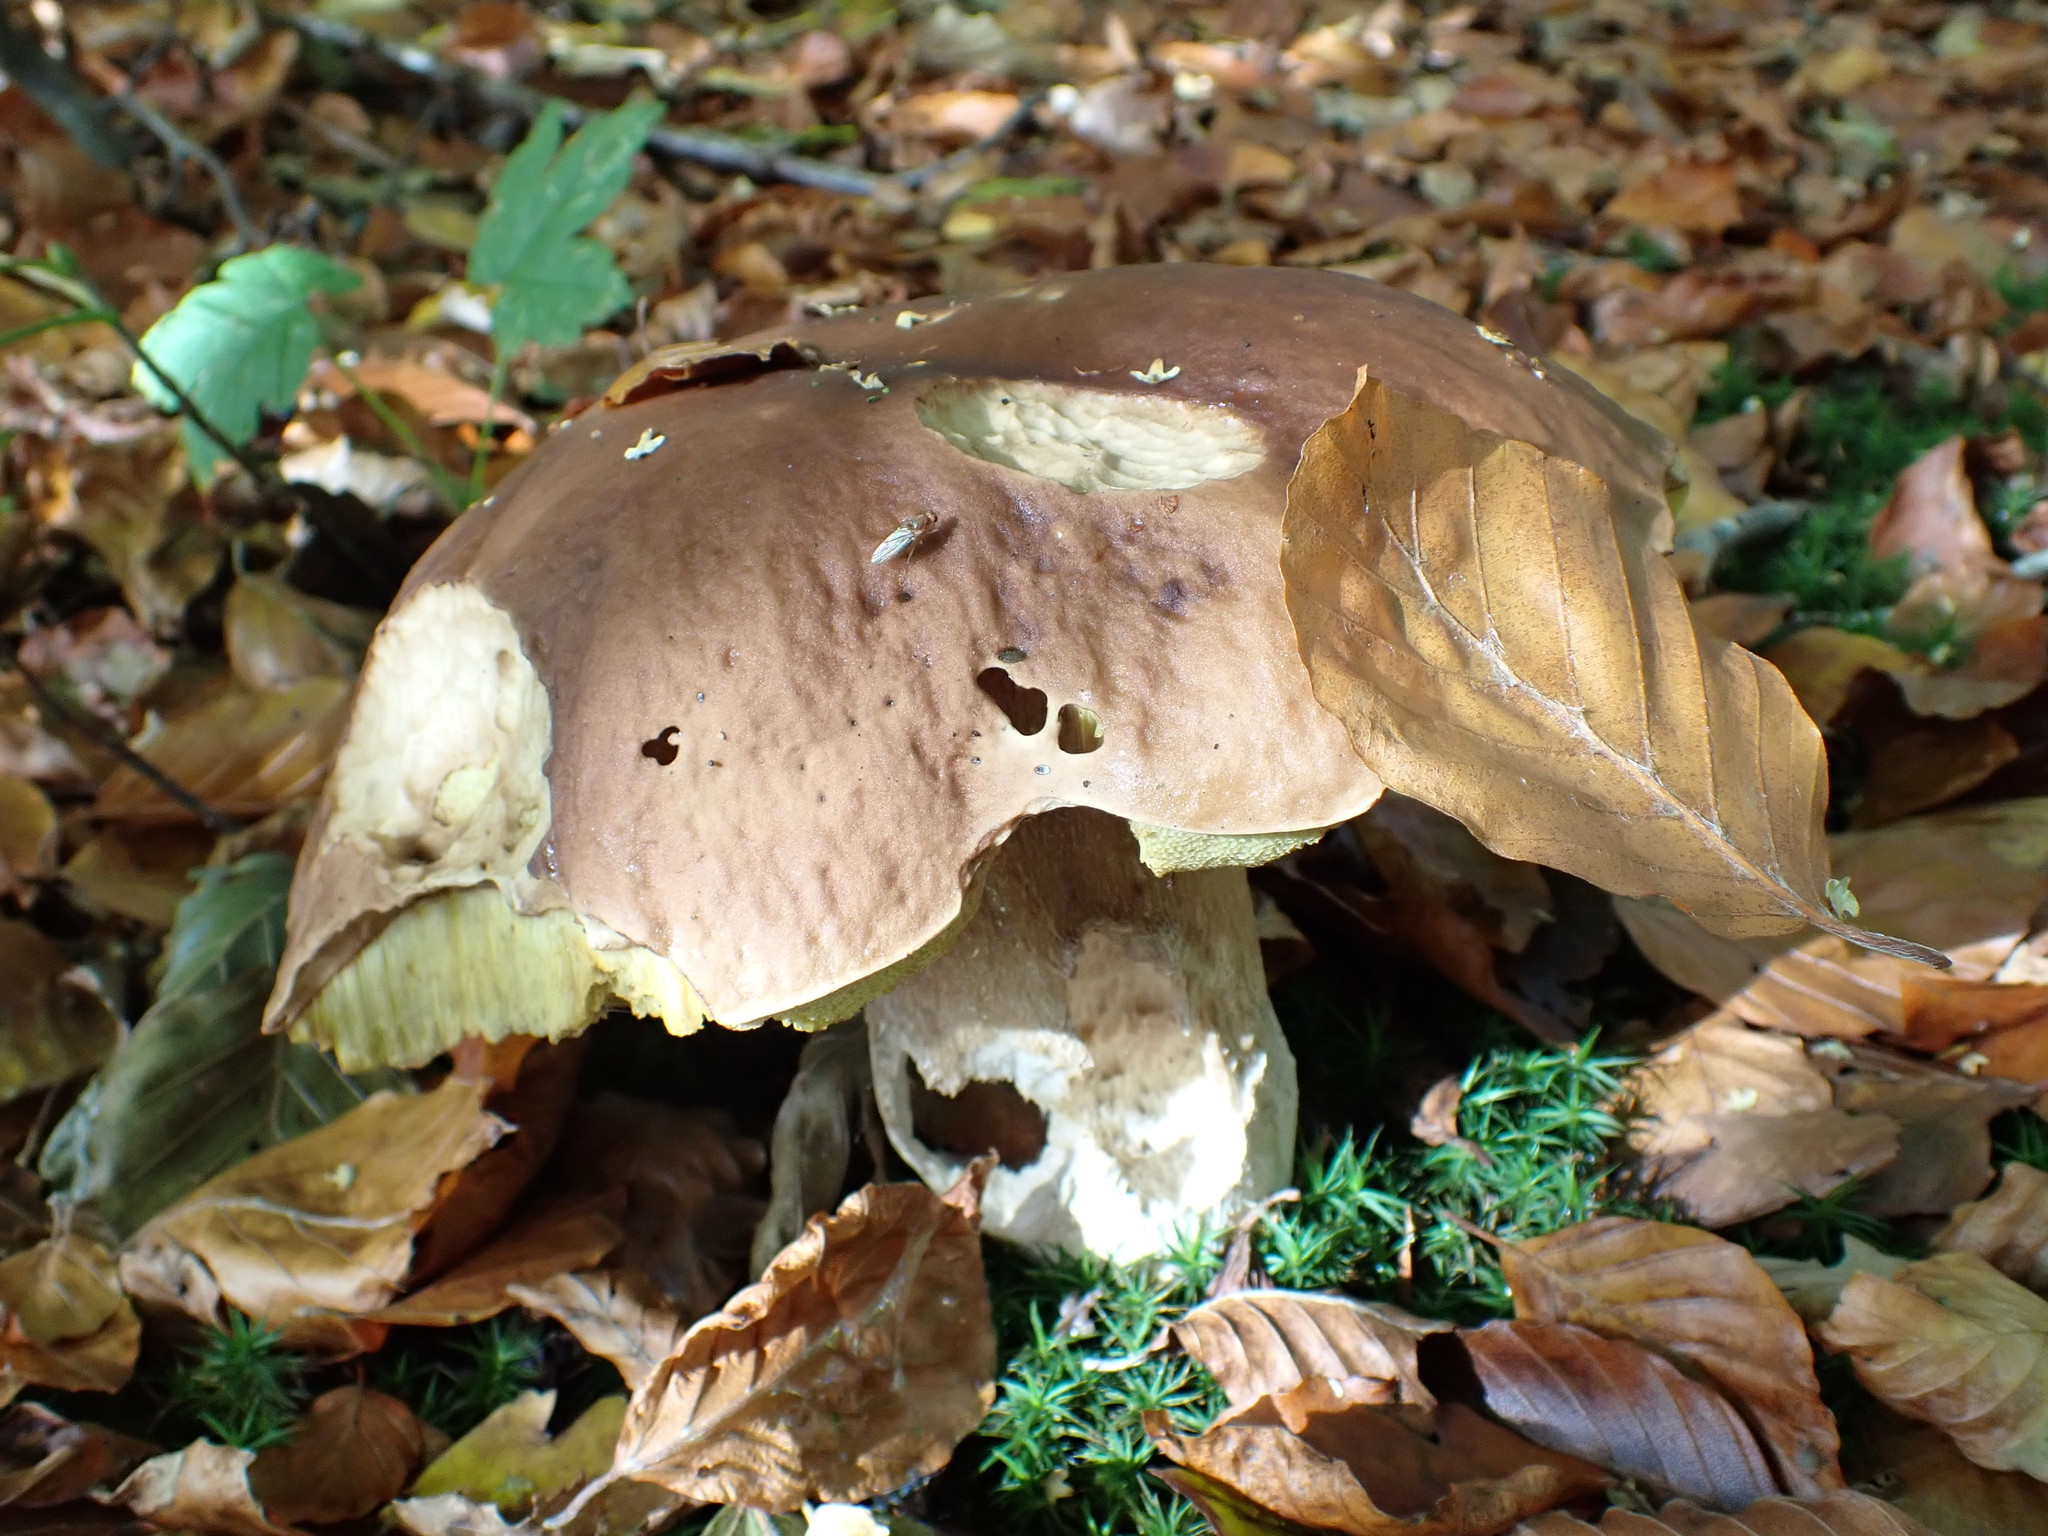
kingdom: Fungi
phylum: Basidiomycota
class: Agaricomycetes
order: Boletales
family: Boletaceae
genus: Boletus
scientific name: Boletus edulis
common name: Cep
